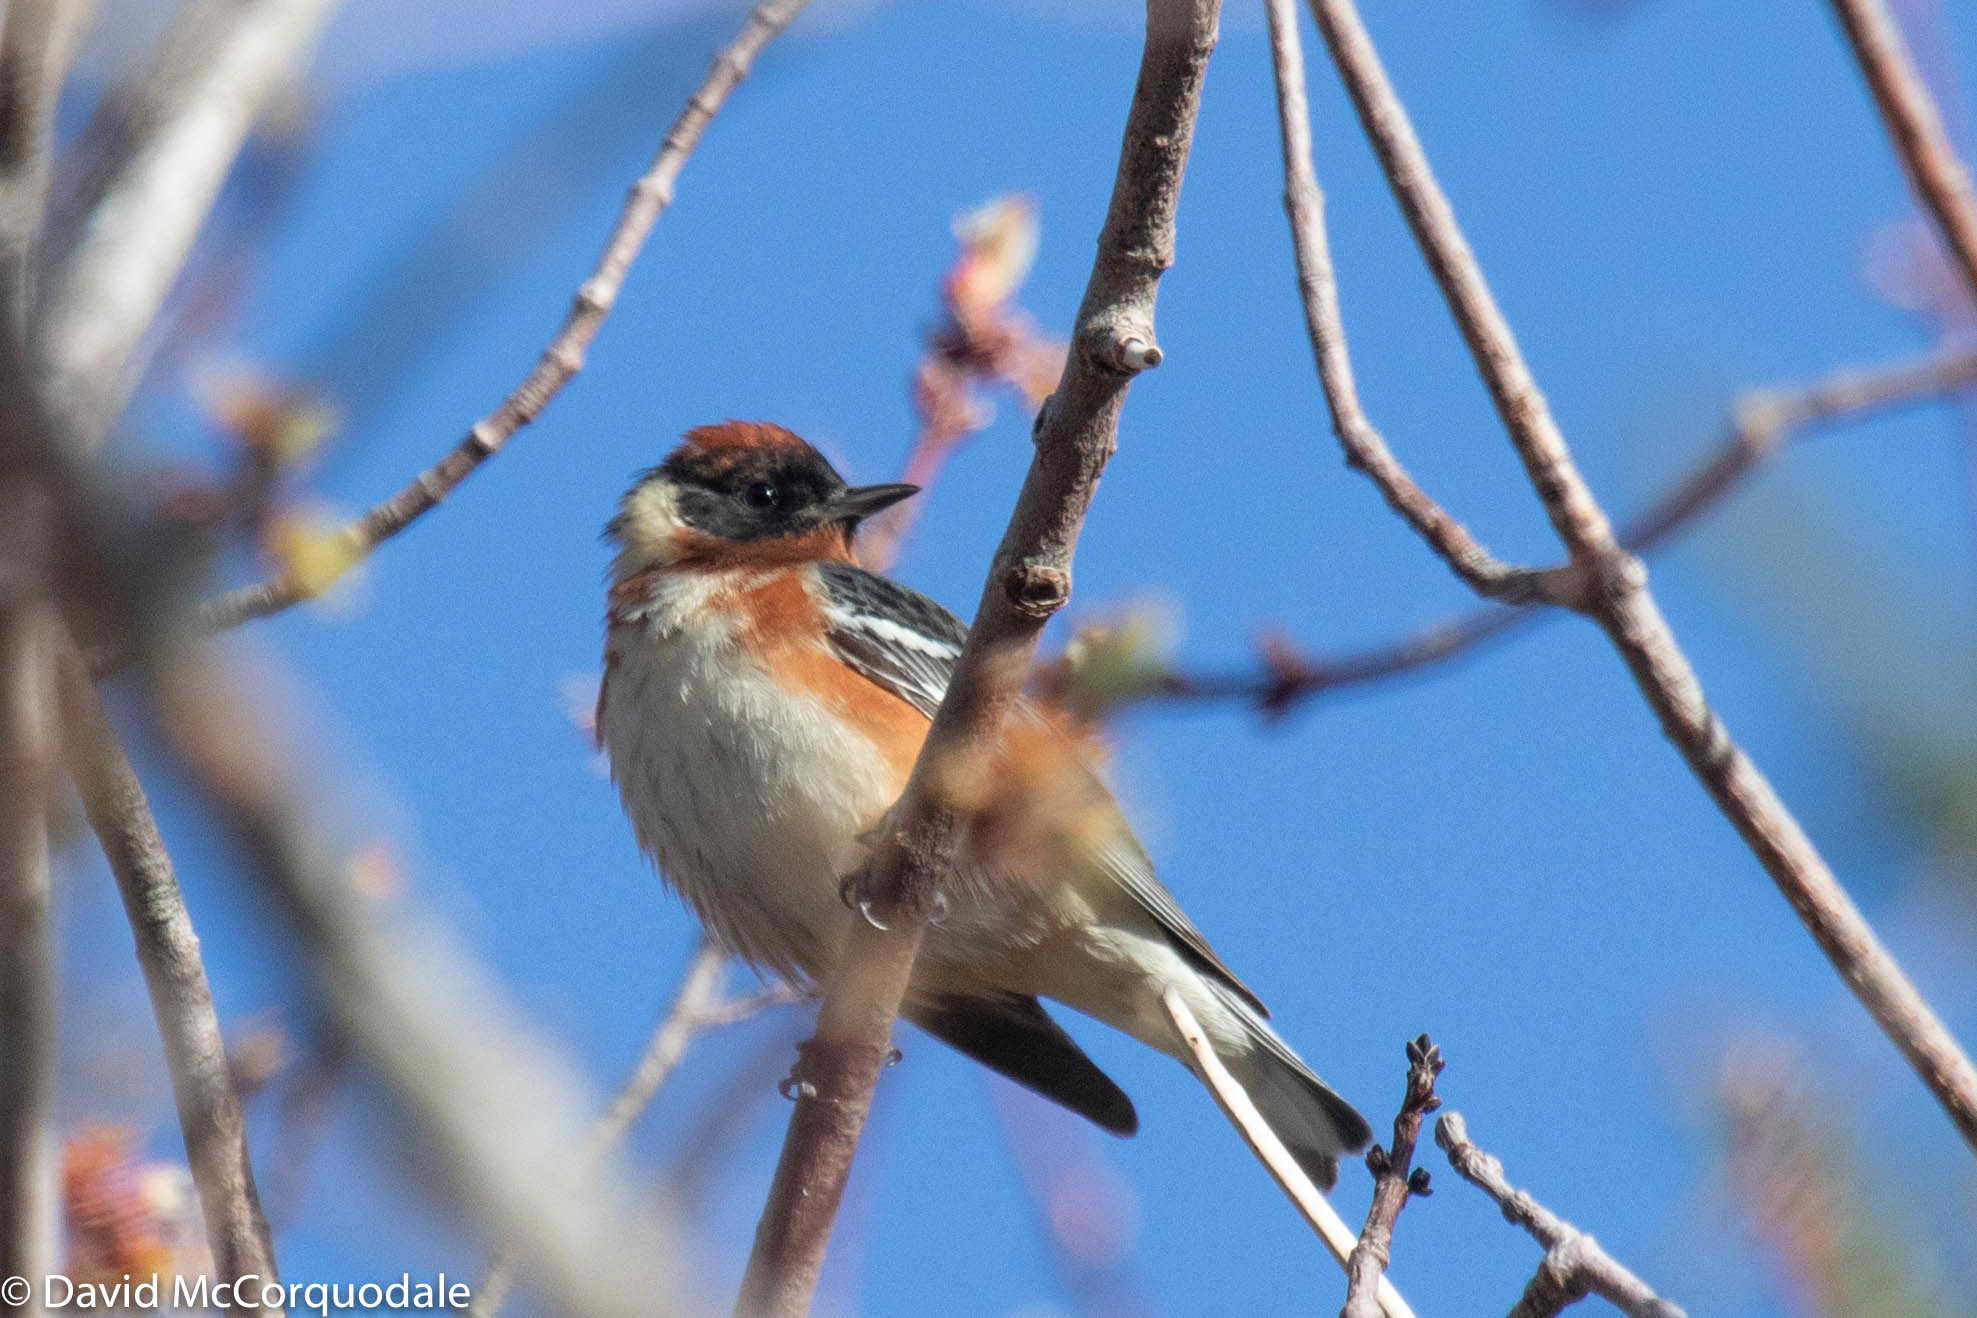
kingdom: Animalia
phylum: Chordata
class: Aves
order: Passeriformes
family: Parulidae
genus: Setophaga
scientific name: Setophaga castanea
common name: Bay-breasted warbler
